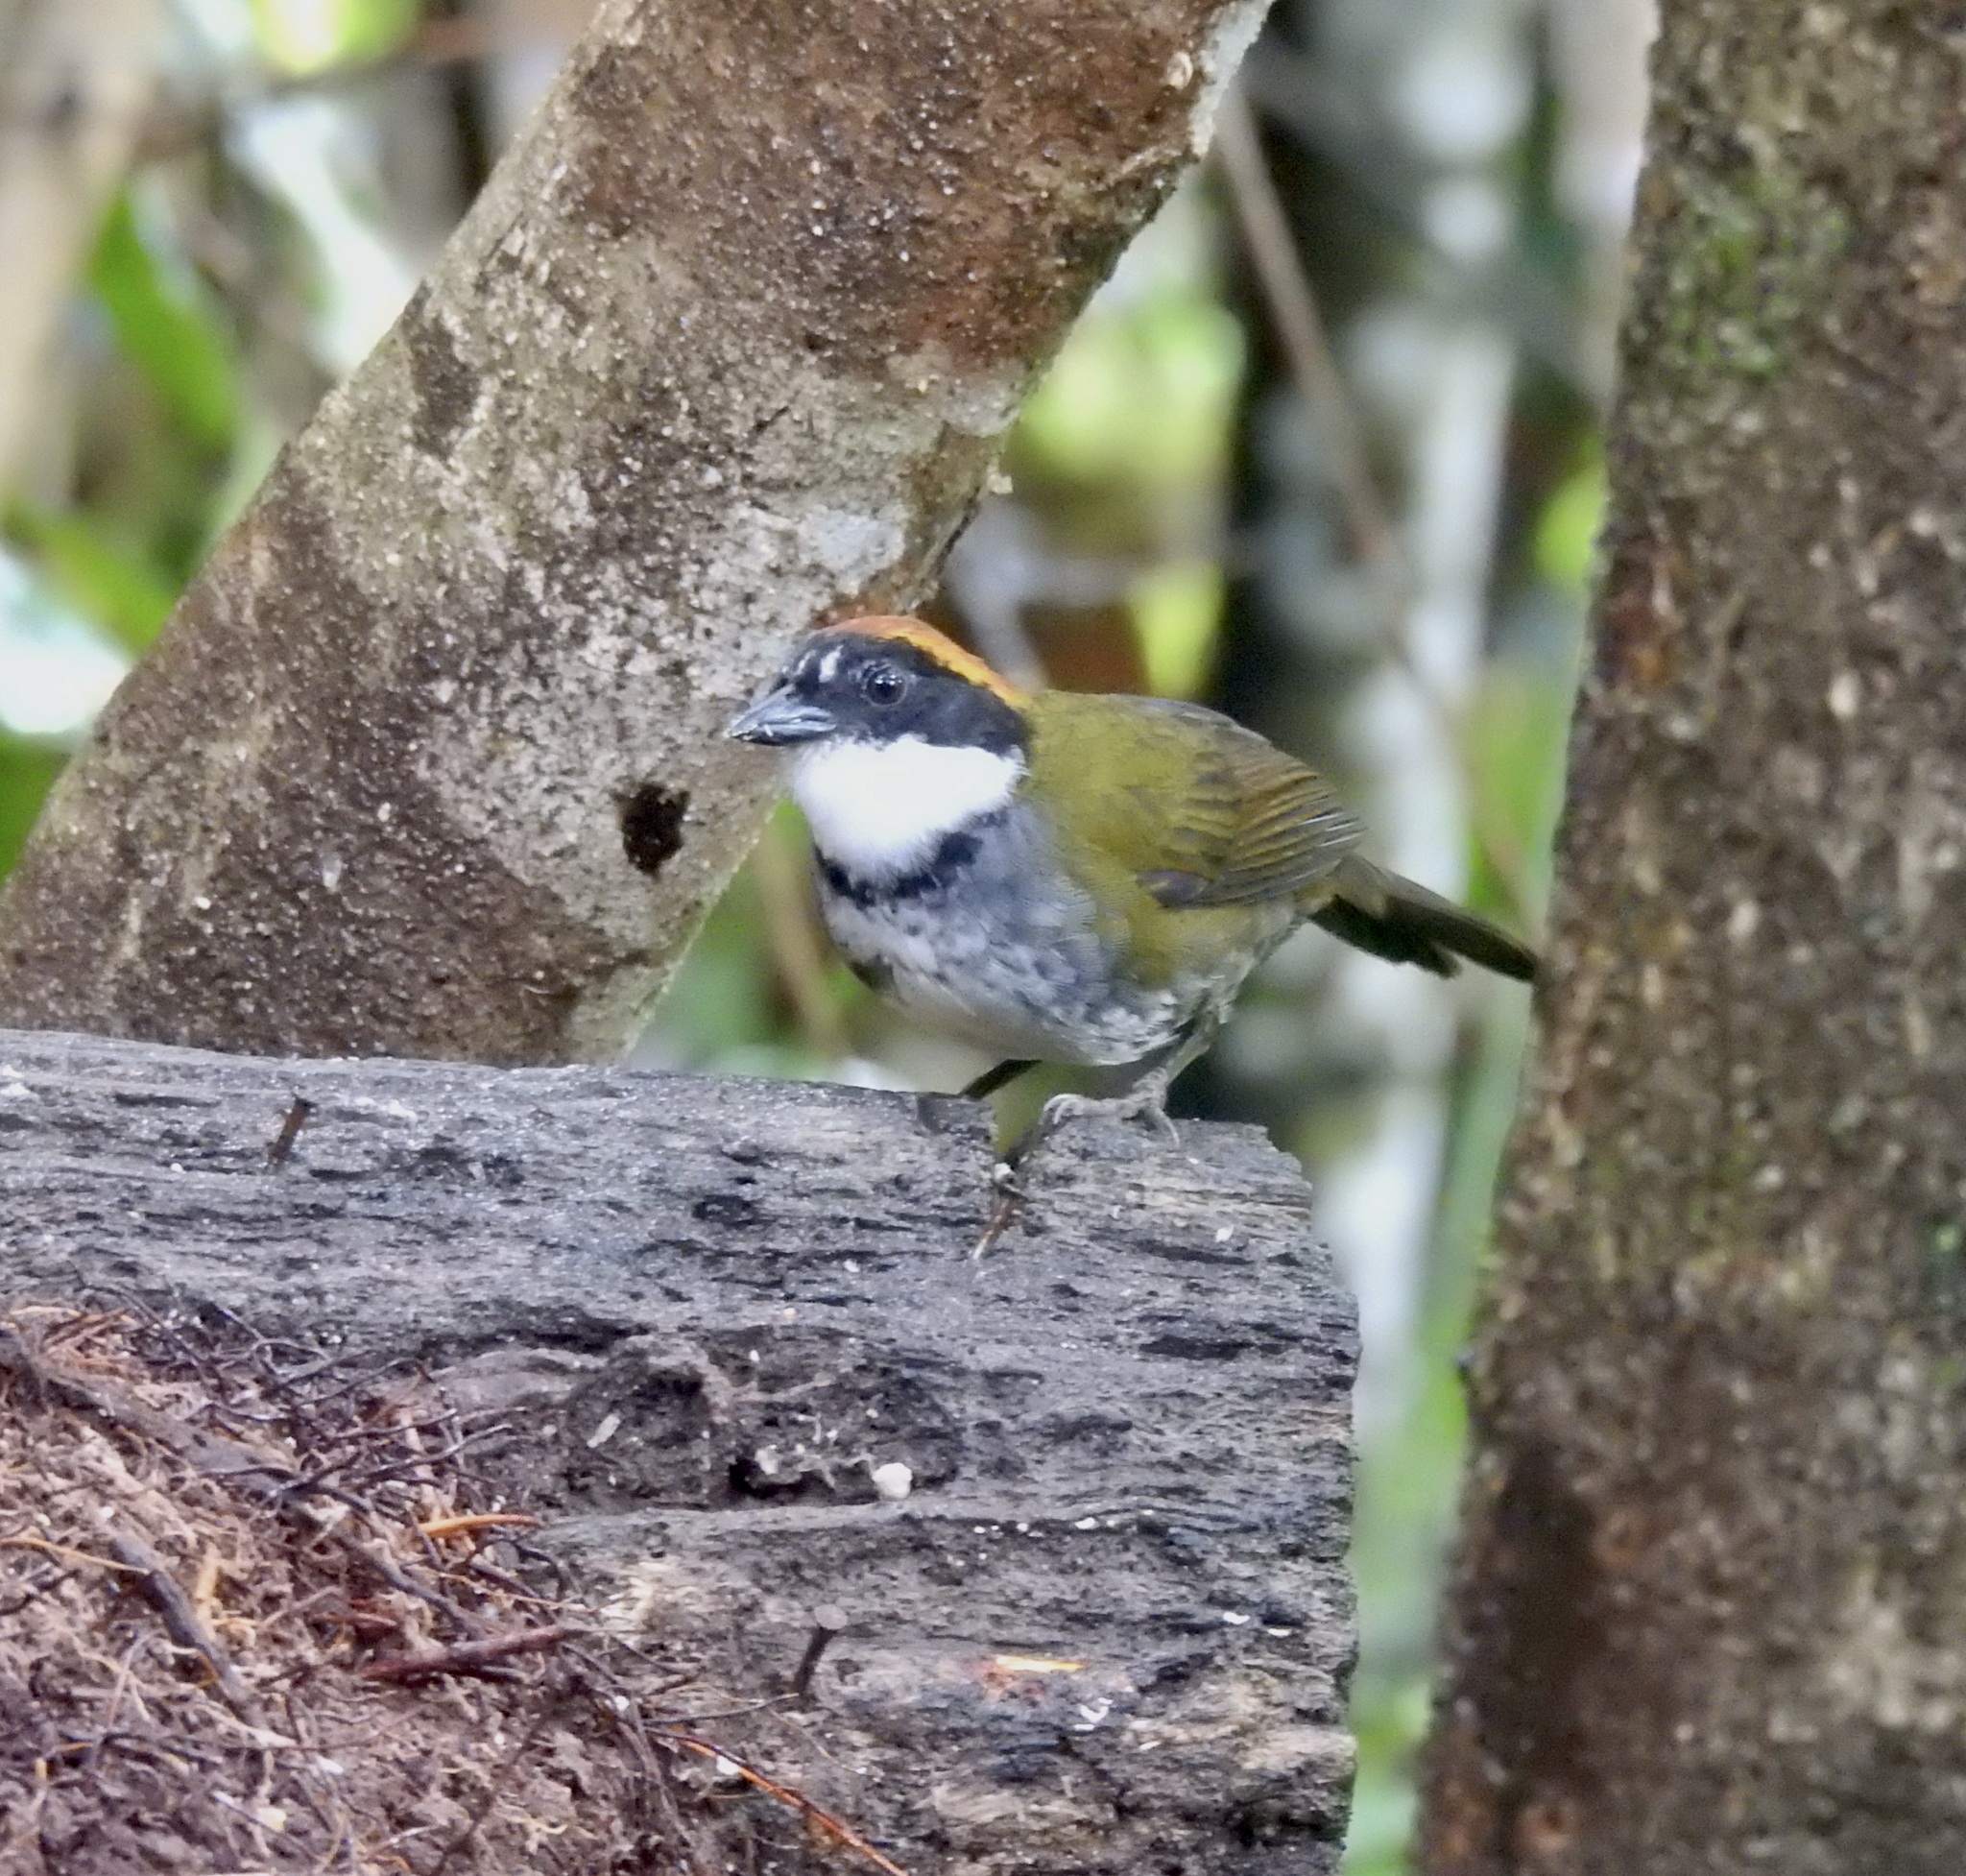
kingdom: Animalia
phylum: Chordata
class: Aves
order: Passeriformes
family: Passerellidae
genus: Arremon
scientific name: Arremon brunneinucha
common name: Chestnut-capped brushfinch
